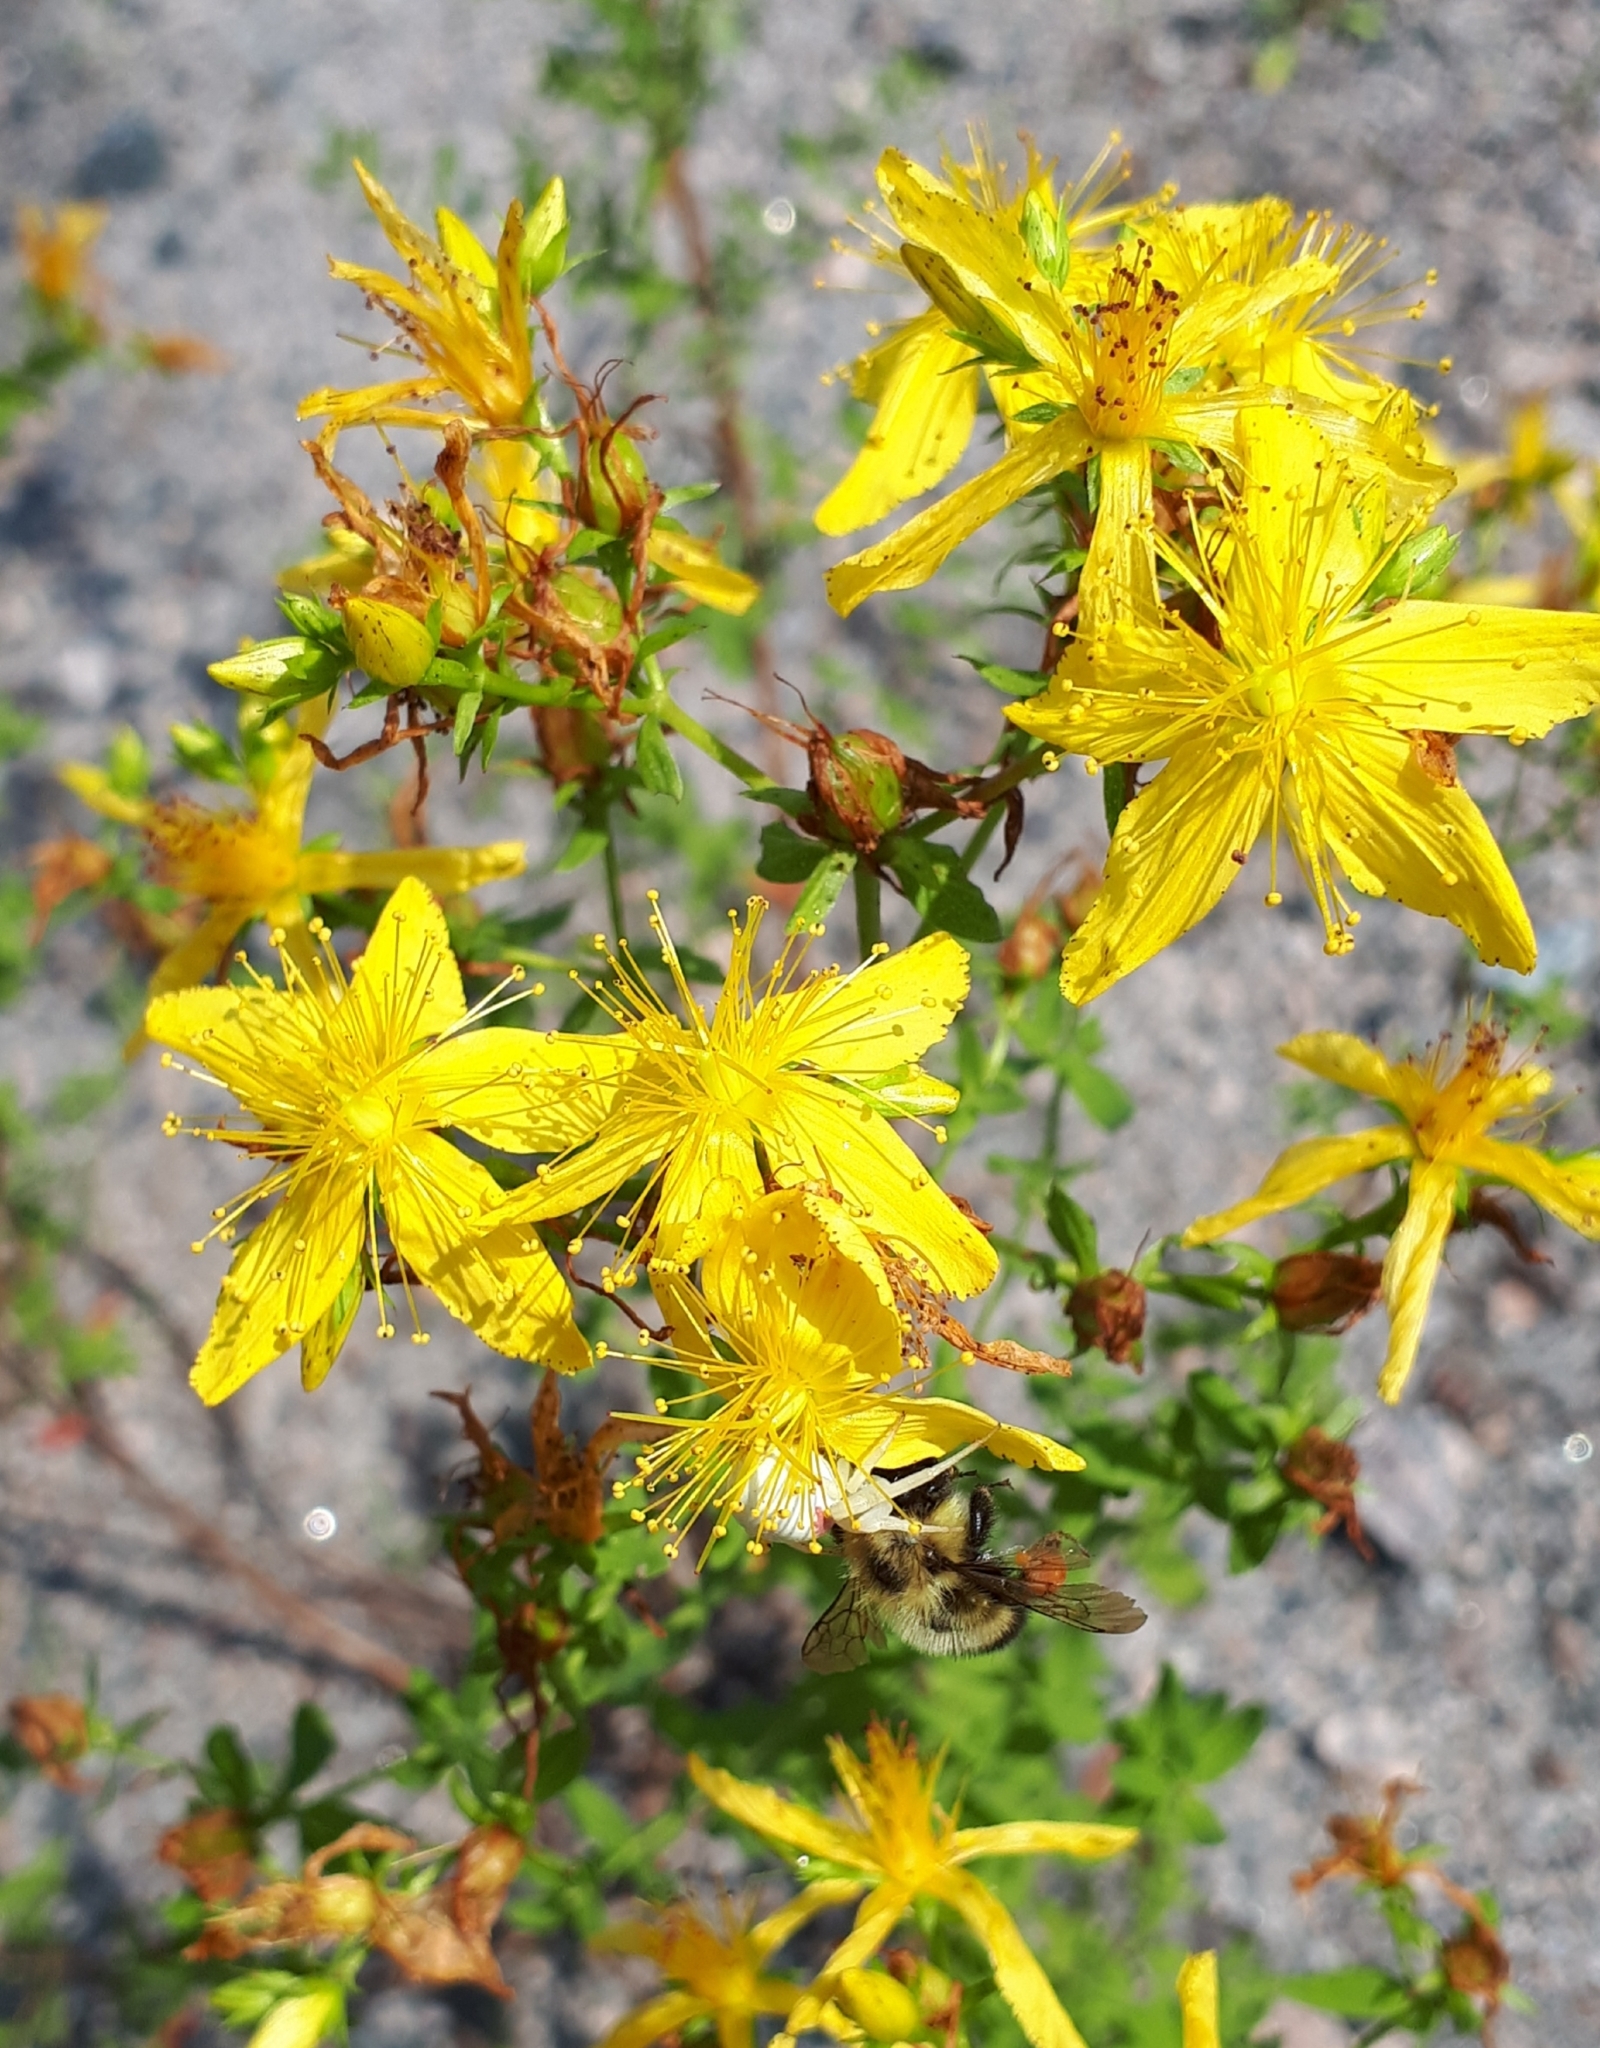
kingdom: Plantae
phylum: Tracheophyta
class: Magnoliopsida
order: Malpighiales
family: Hypericaceae
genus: Hypericum
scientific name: Hypericum perforatum
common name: Common st. johnswort
